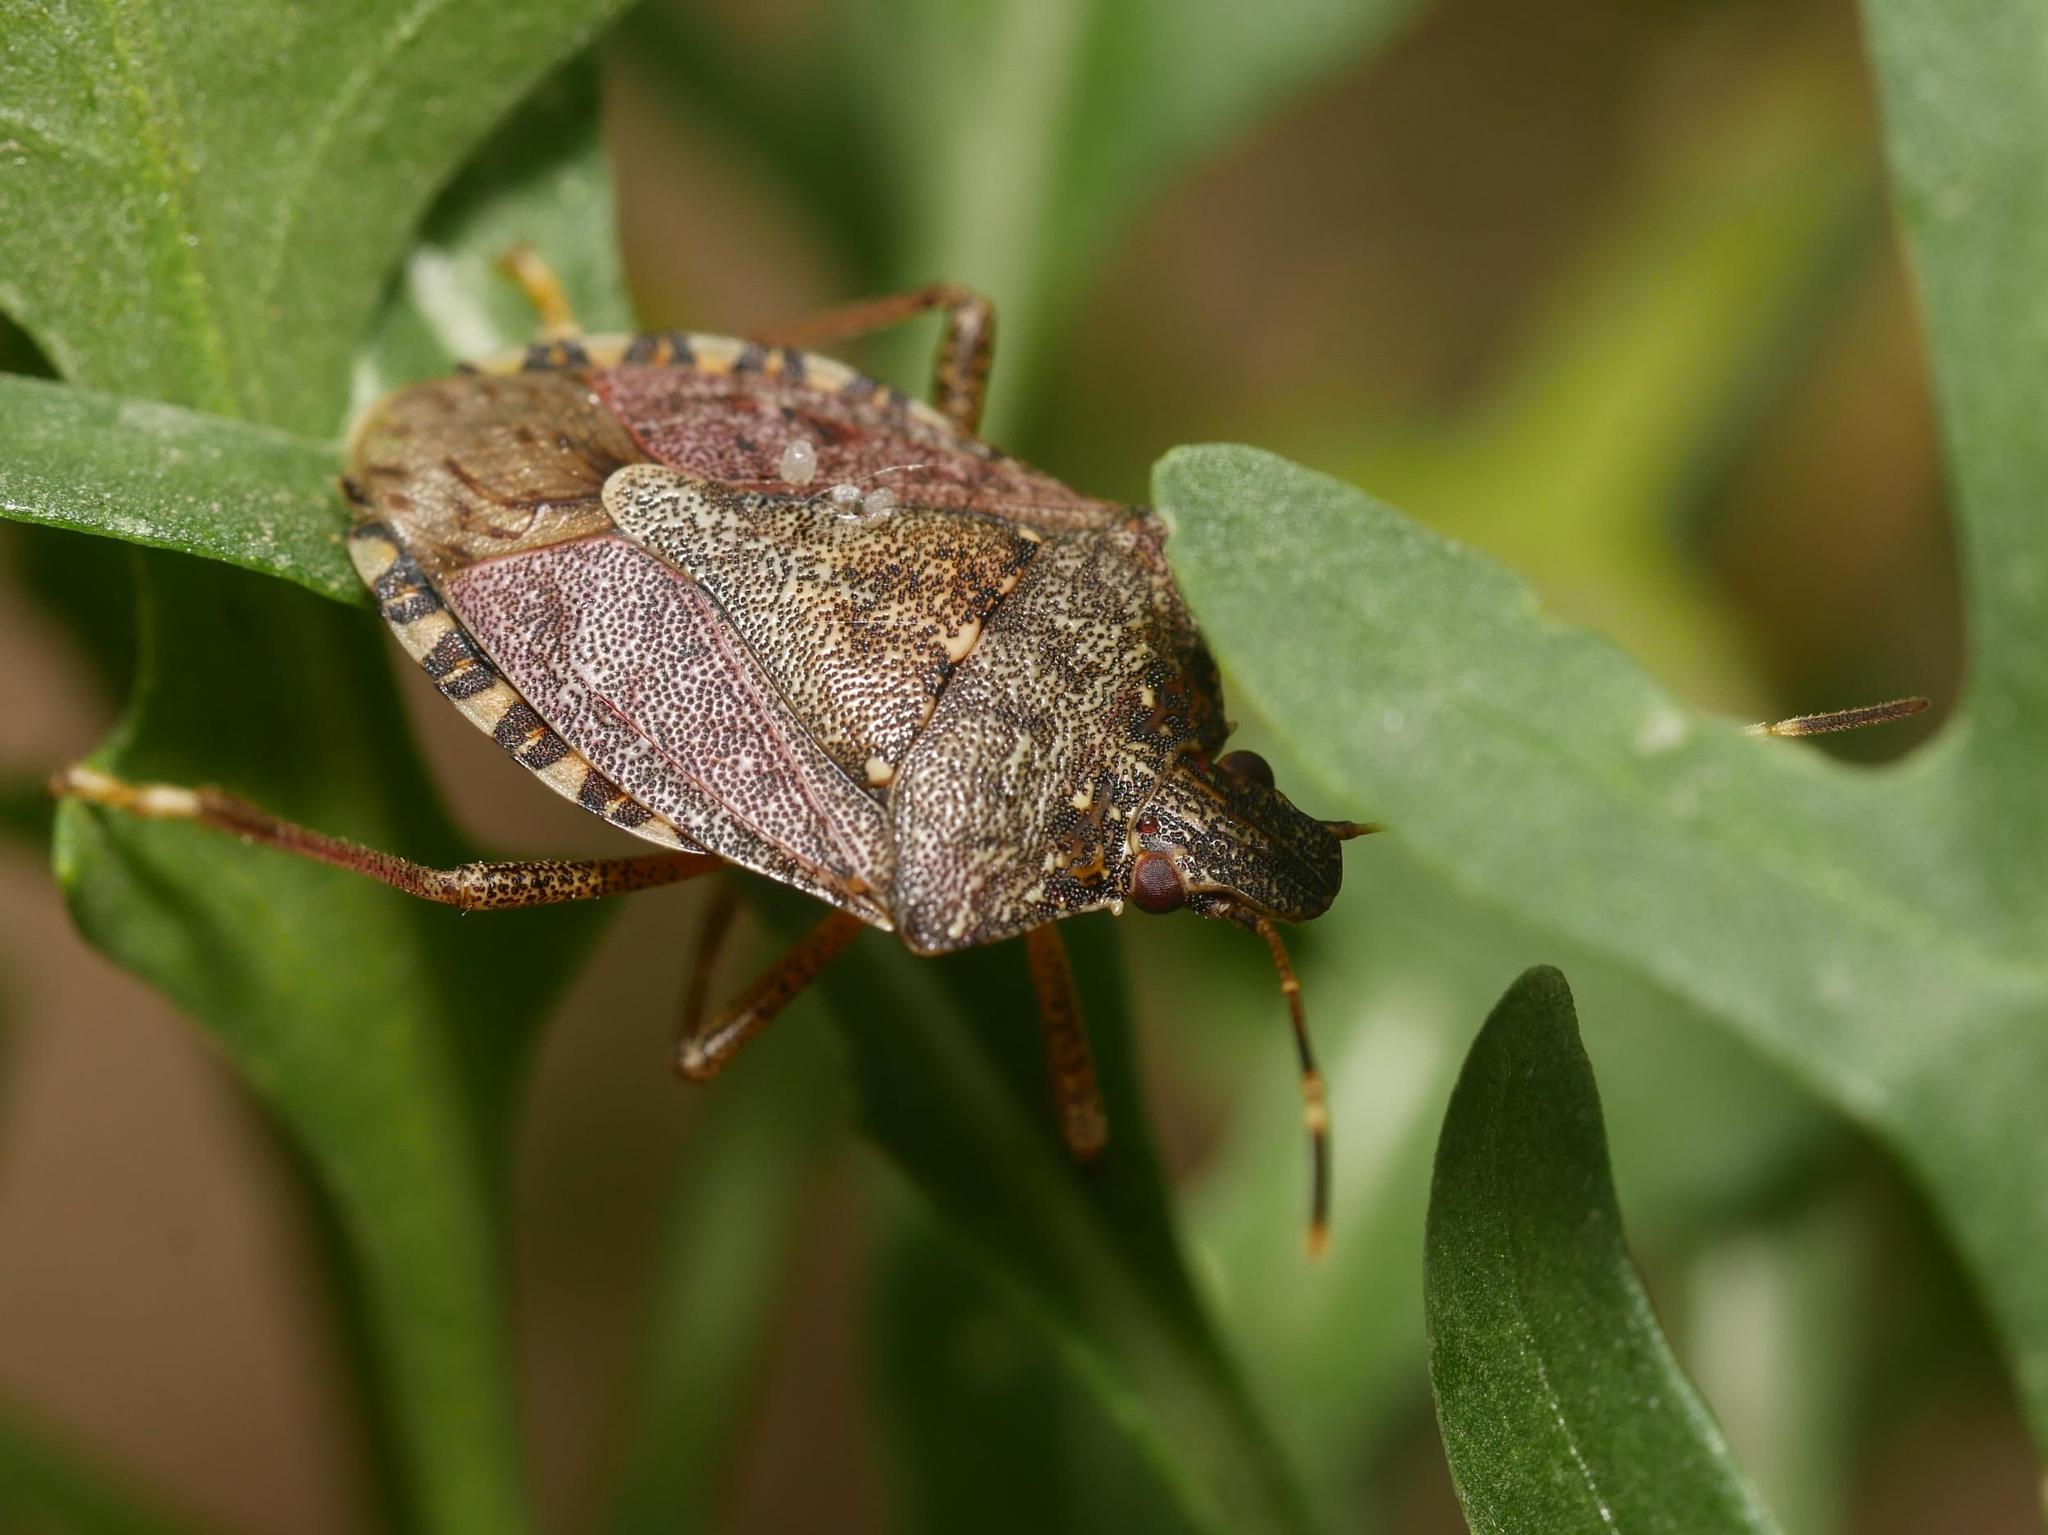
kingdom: Animalia
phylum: Arthropoda
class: Insecta
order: Hemiptera
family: Pentatomidae
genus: Halyomorpha
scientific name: Halyomorpha halys
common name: Brown marmorated stink bug
